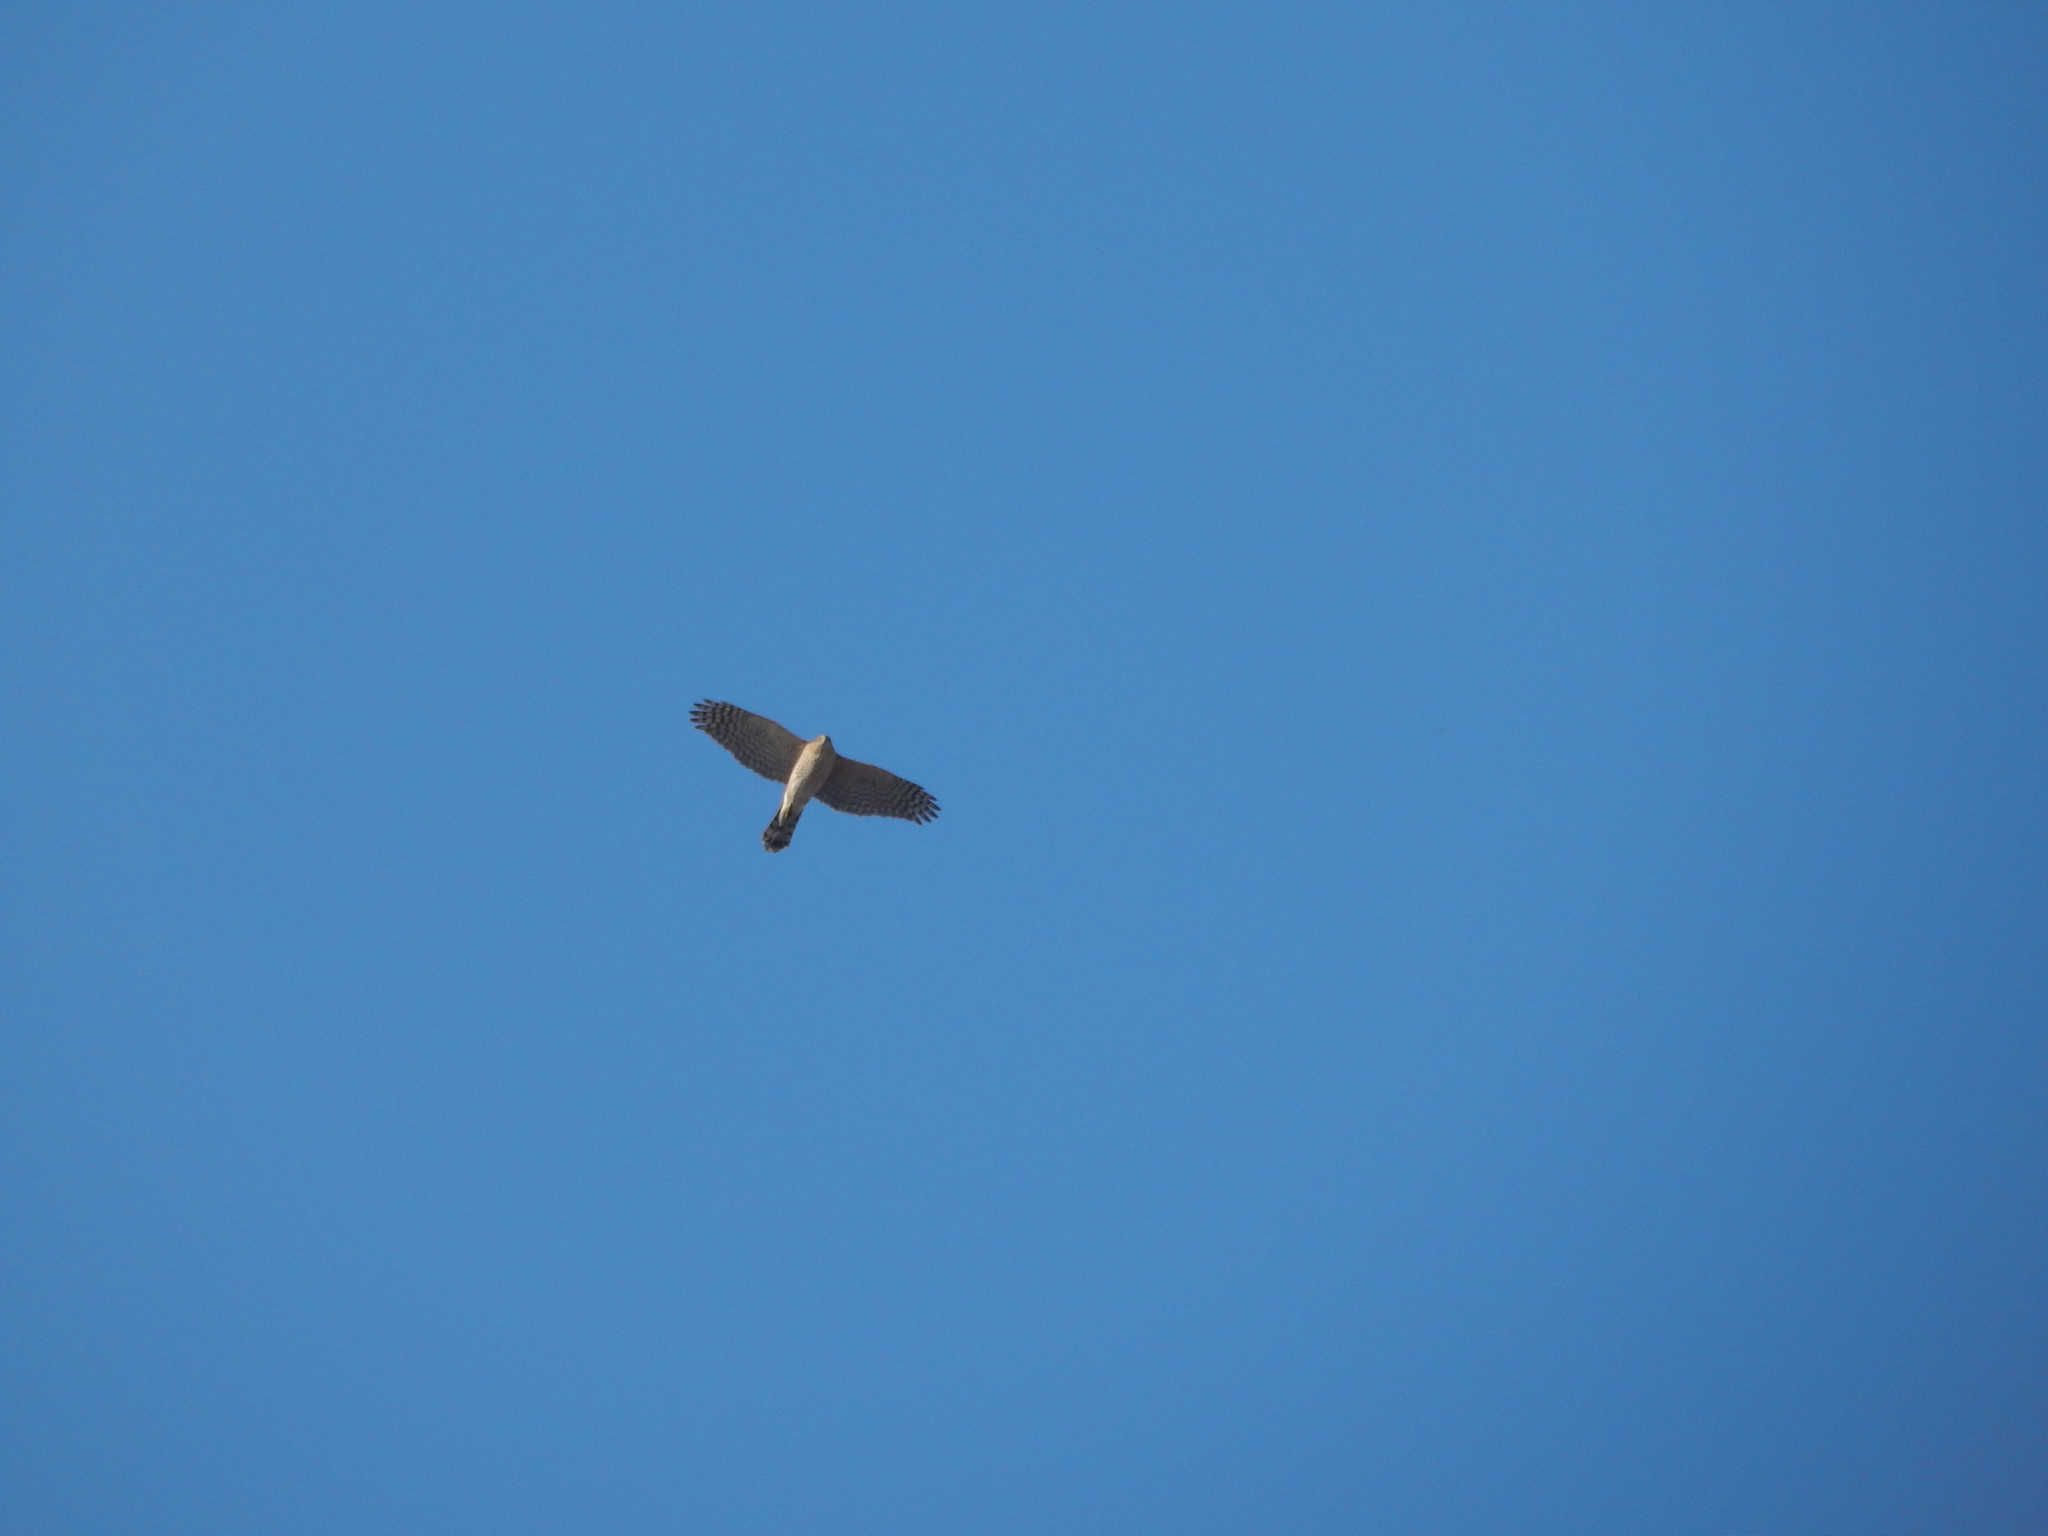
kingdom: Animalia
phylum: Chordata
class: Aves
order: Accipitriformes
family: Accipitridae
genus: Accipiter
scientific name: Accipiter cooperii
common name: Cooper's hawk
